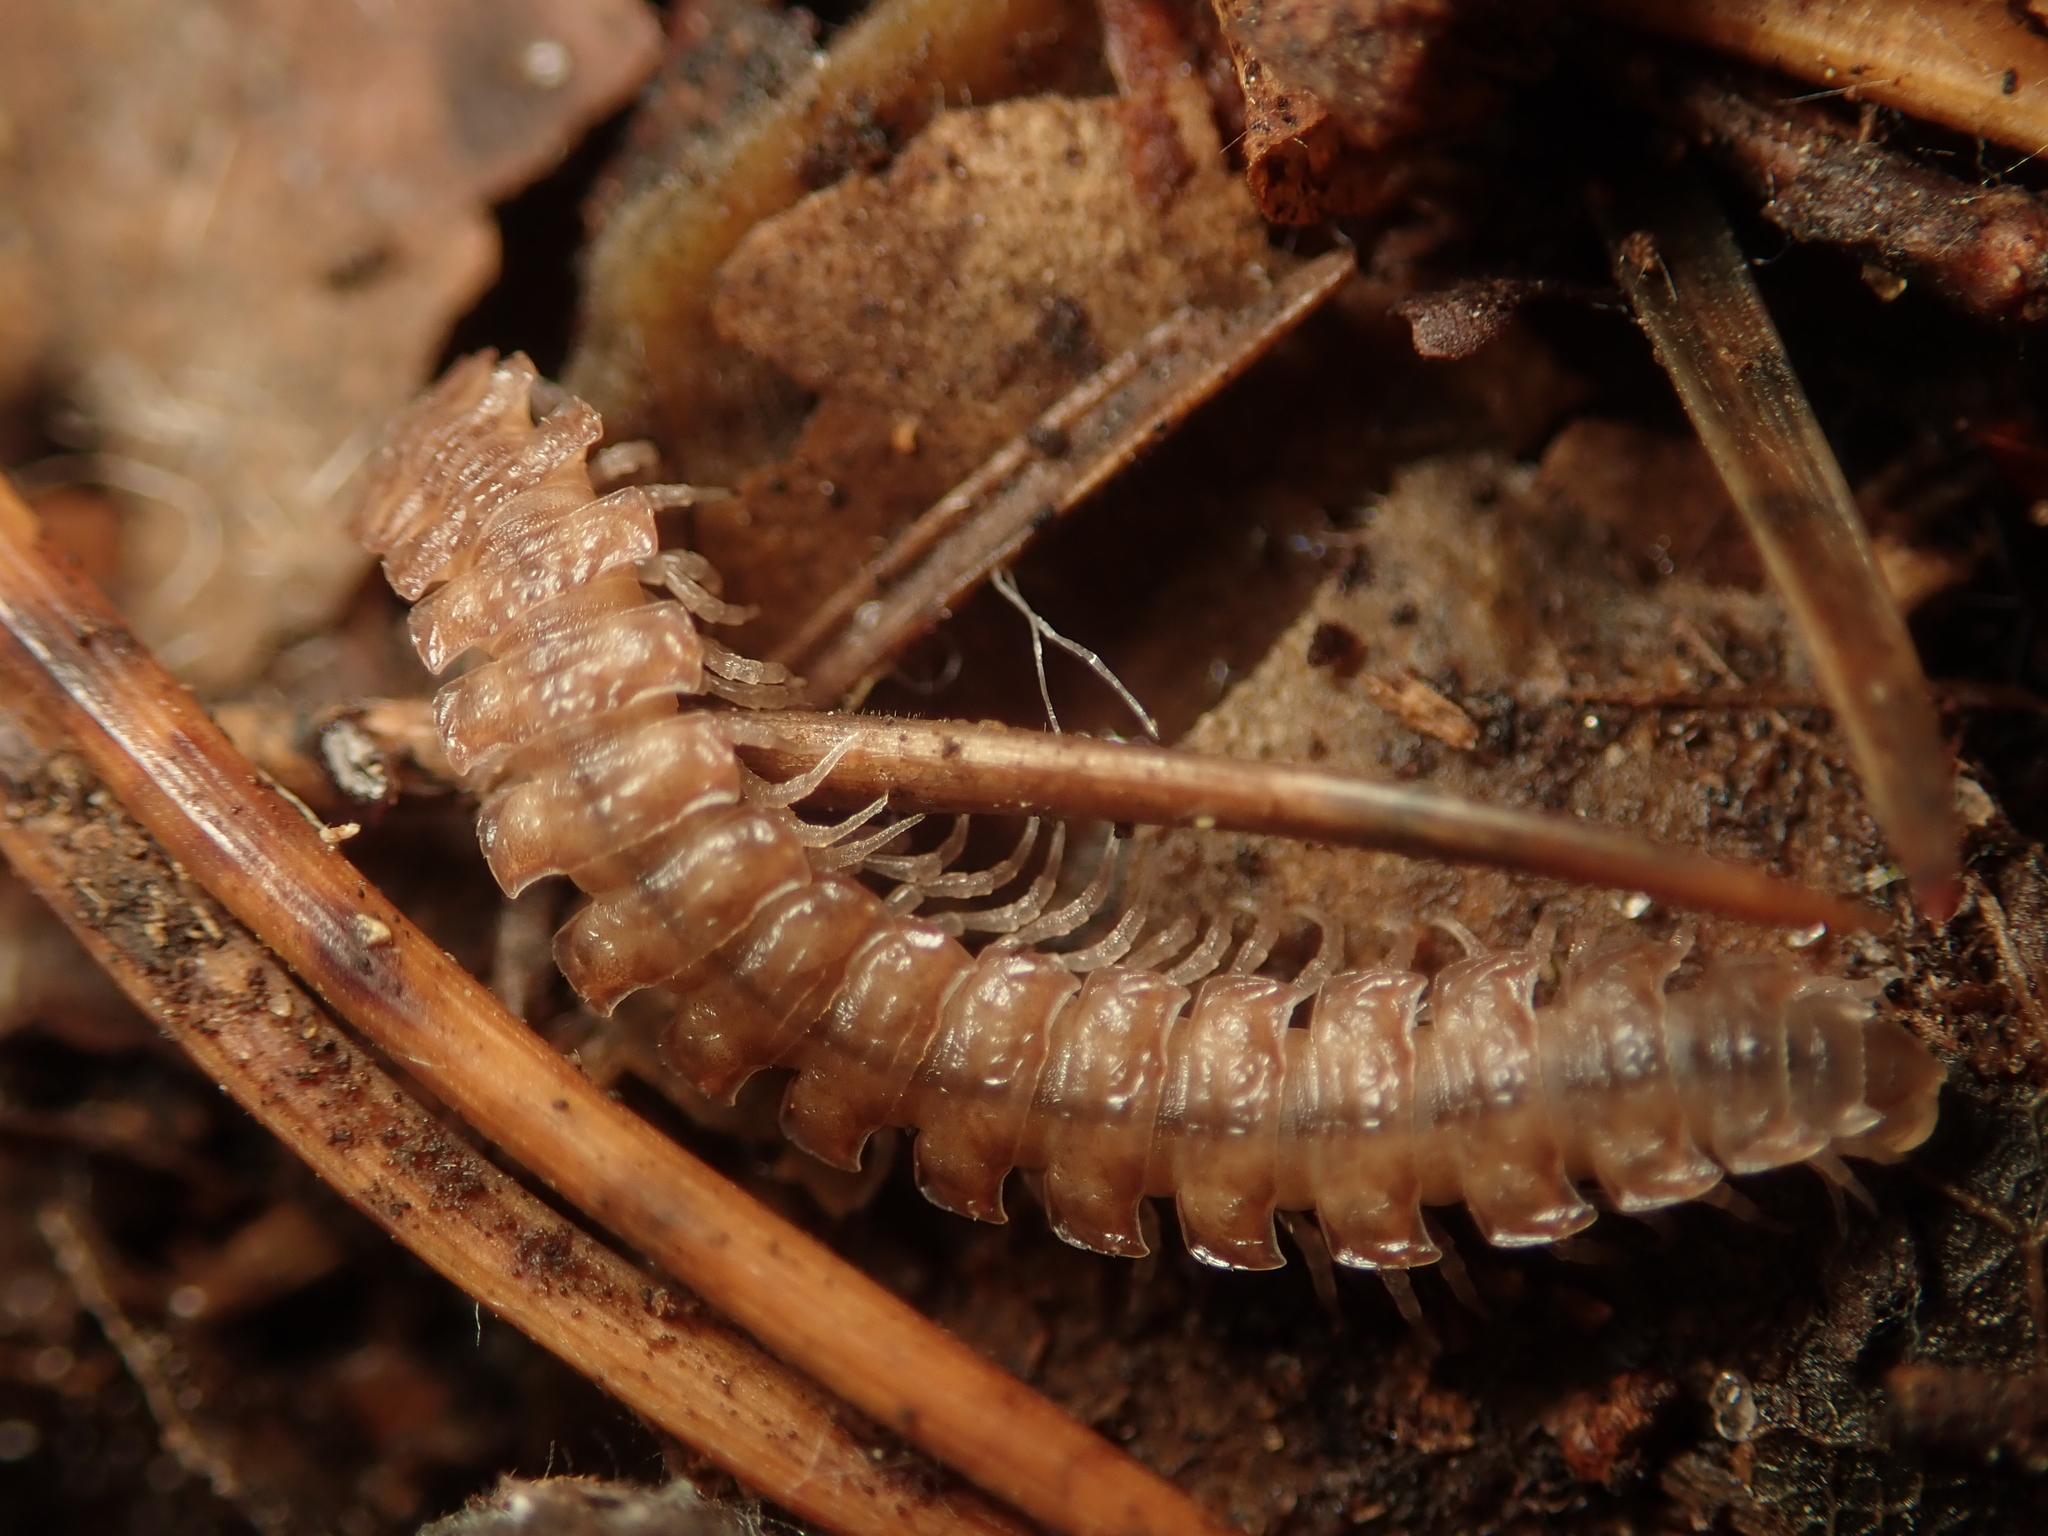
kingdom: Animalia
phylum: Arthropoda
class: Diplopoda
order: Polydesmida
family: Polydesmidae
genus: Polydesmus
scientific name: Polydesmus angustus
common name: Flat millipede
